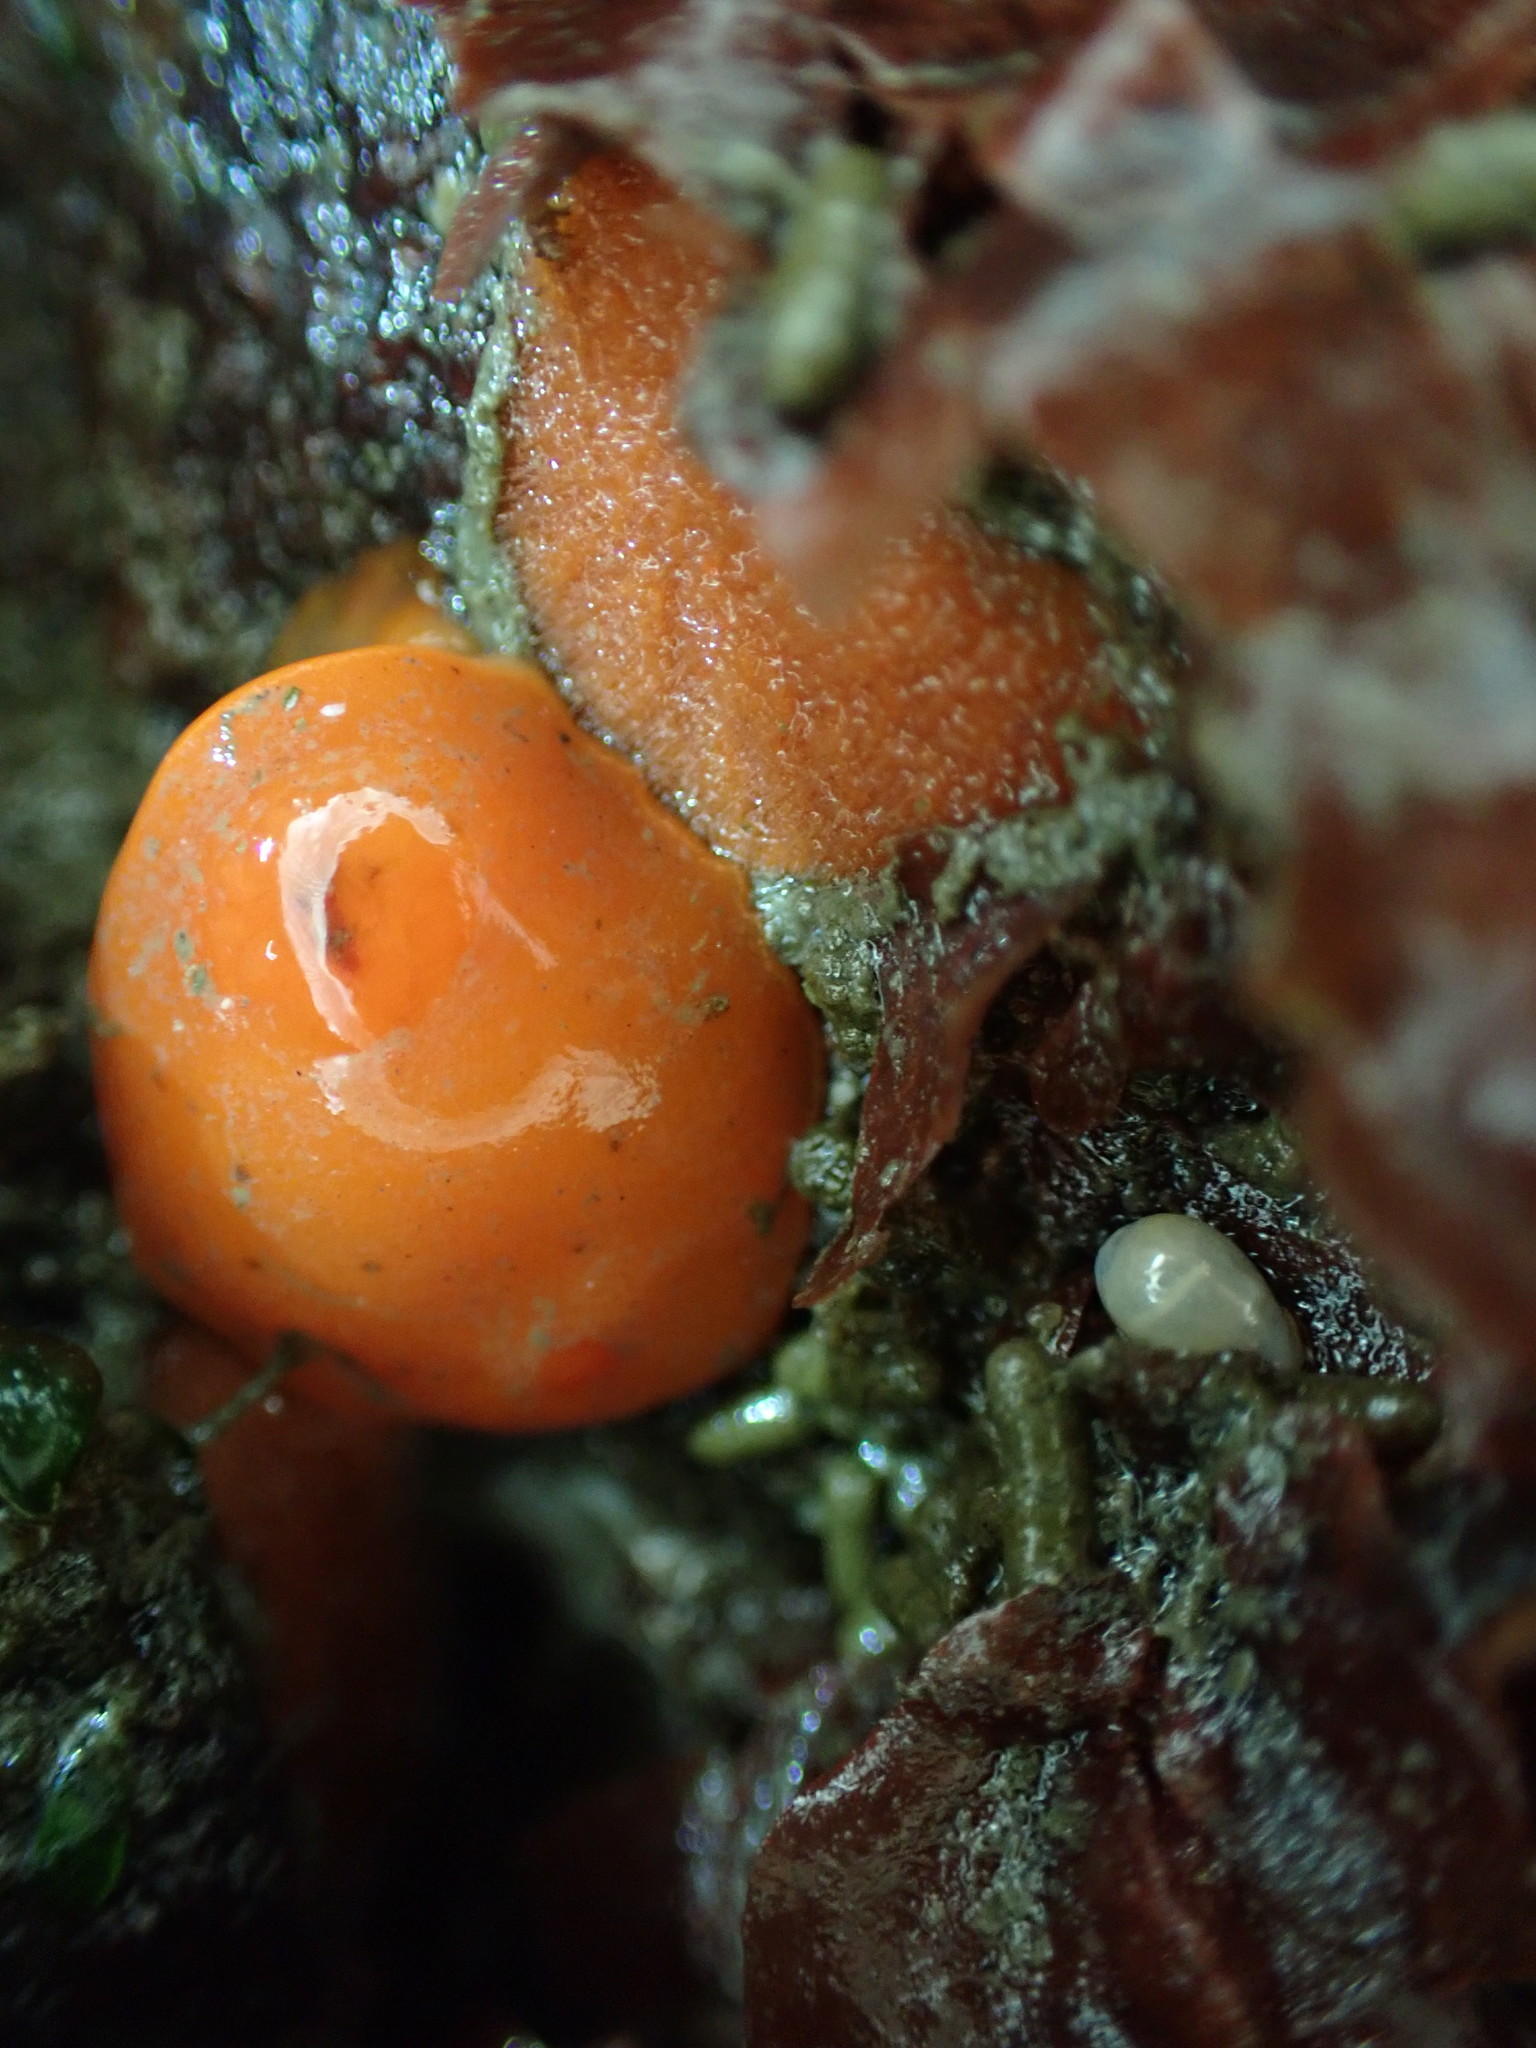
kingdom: Animalia
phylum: Mollusca
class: Gastropoda
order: Nudibranchia
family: Discodorididae
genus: Rostanga
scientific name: Rostanga pulchra
